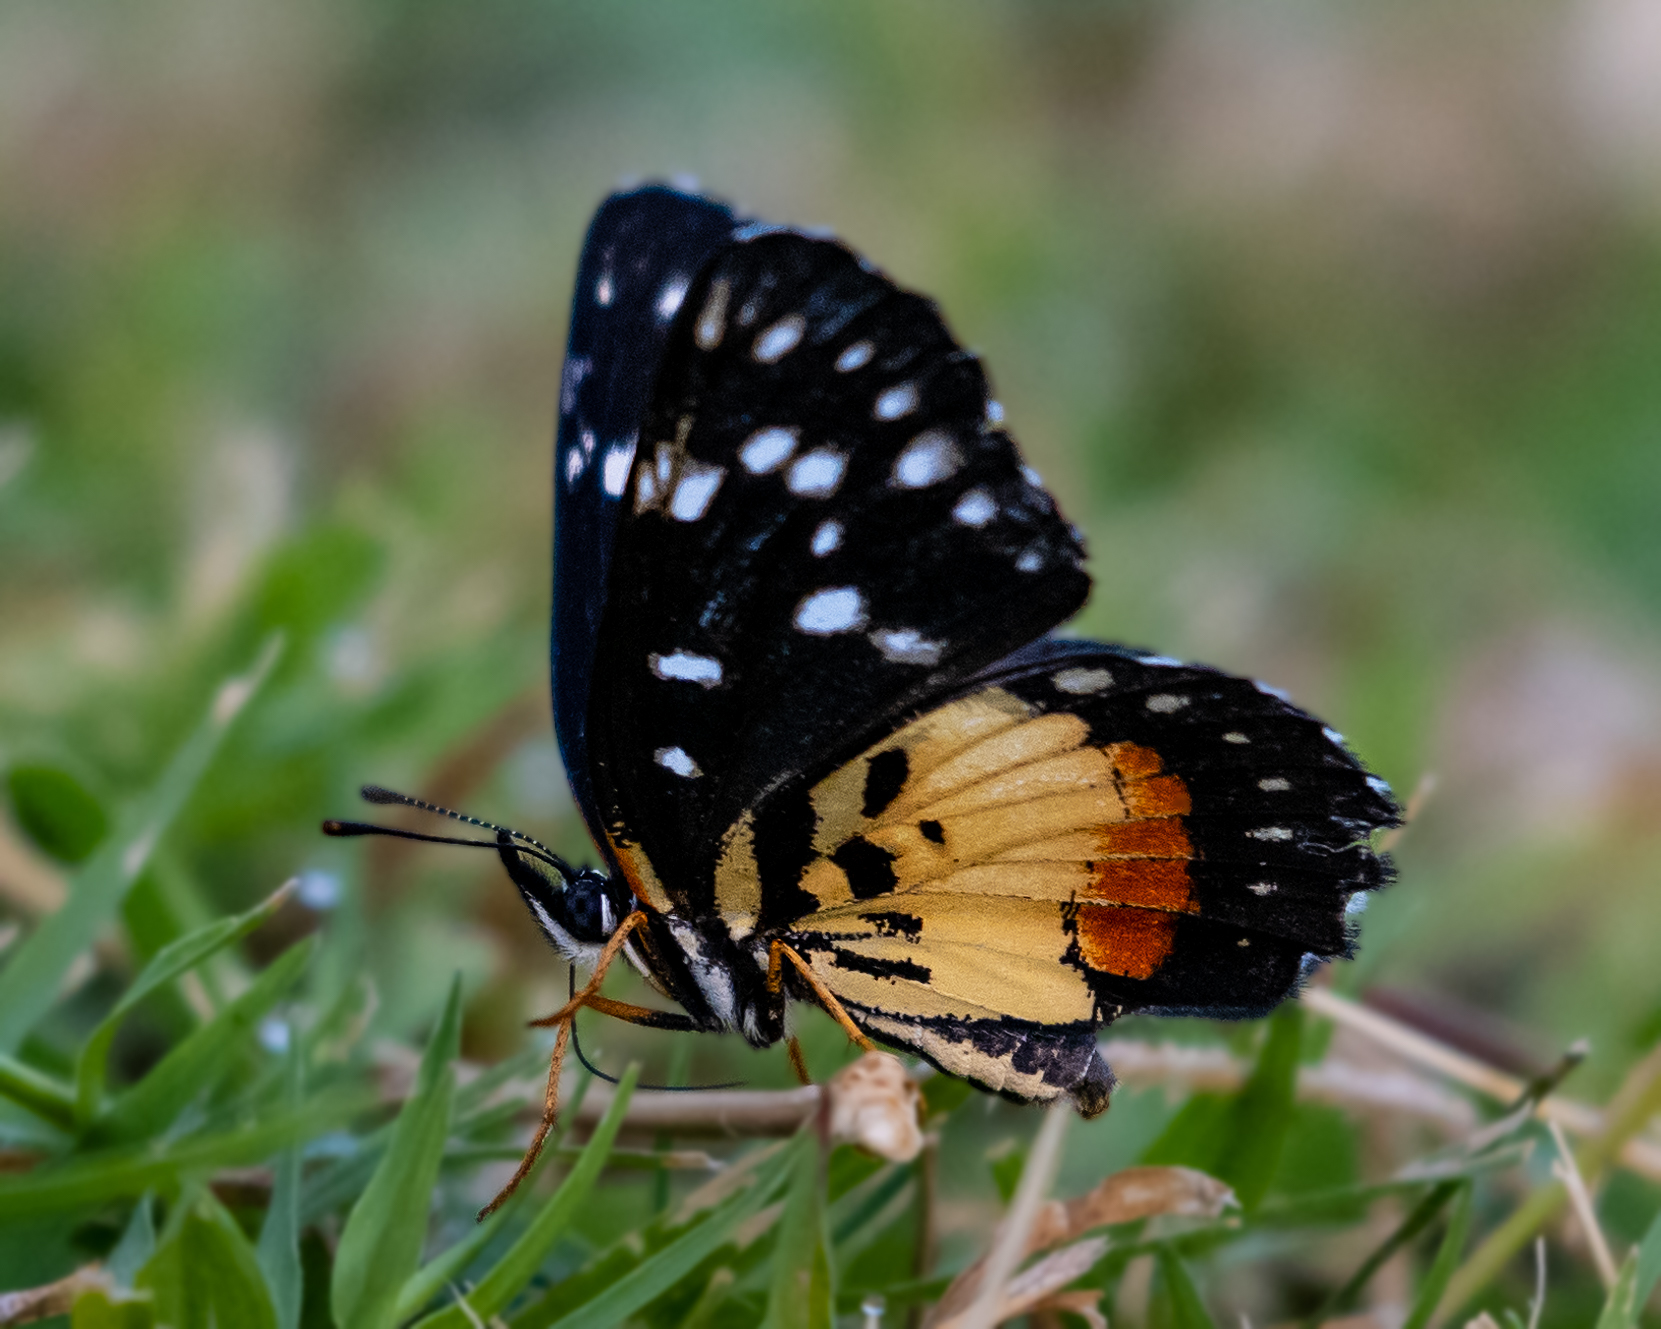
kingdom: Animalia
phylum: Arthropoda
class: Insecta
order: Lepidoptera
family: Nymphalidae
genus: Chlosyne
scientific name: Chlosyne rosita
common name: Rosita patch
